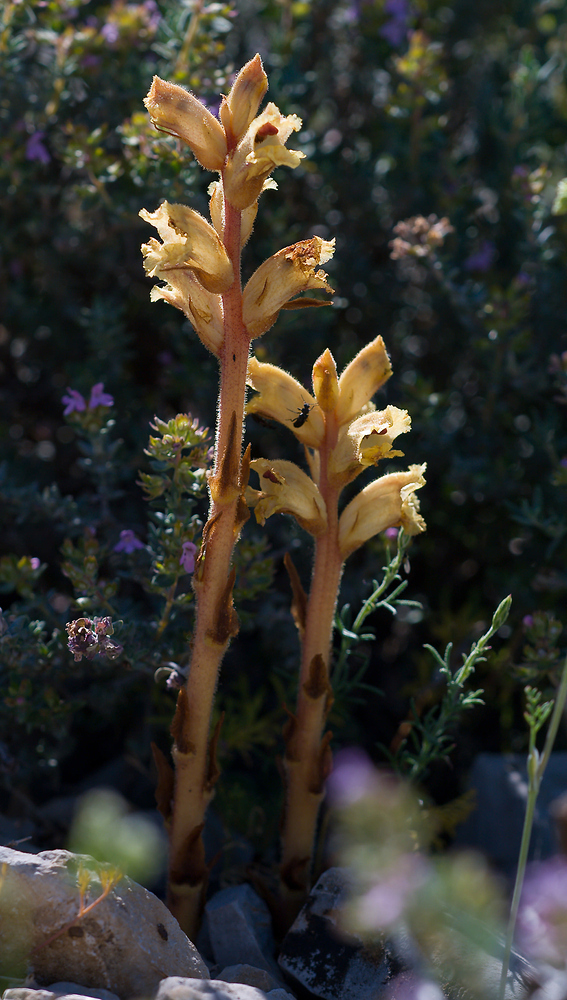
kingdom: Plantae
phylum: Tracheophyta
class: Magnoliopsida
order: Lamiales
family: Orobanchaceae
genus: Orobanche
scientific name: Orobanche alba
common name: Thyme broomrape
